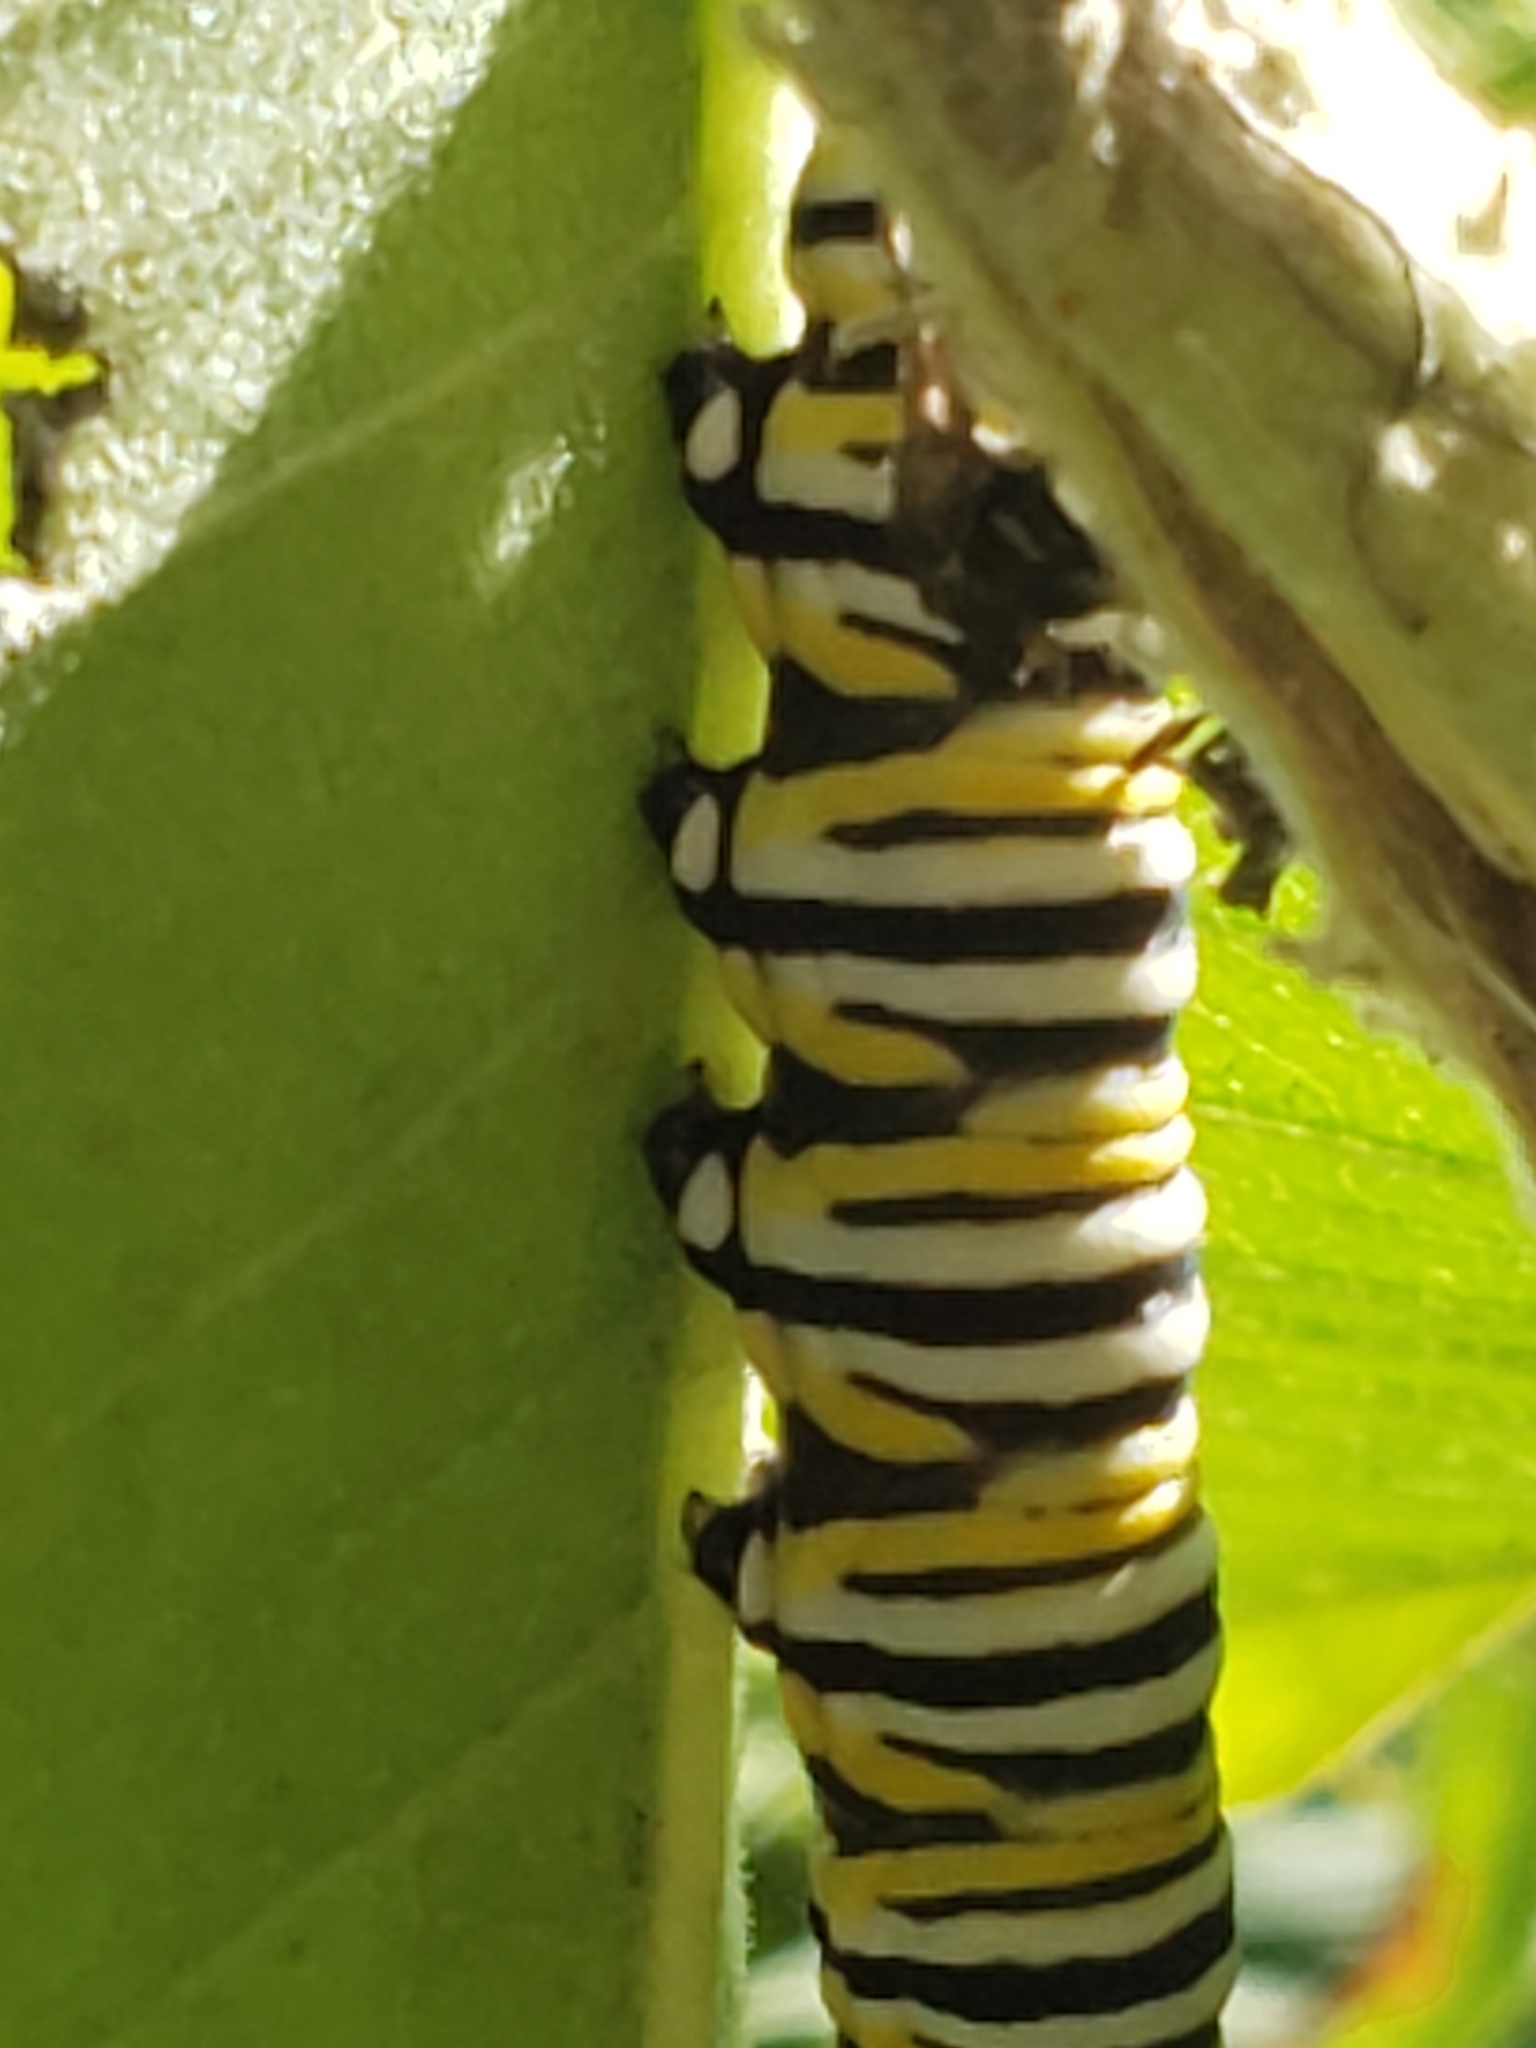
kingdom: Animalia
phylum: Arthropoda
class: Insecta
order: Lepidoptera
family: Nymphalidae
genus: Danaus
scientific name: Danaus plexippus
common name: Monarch
